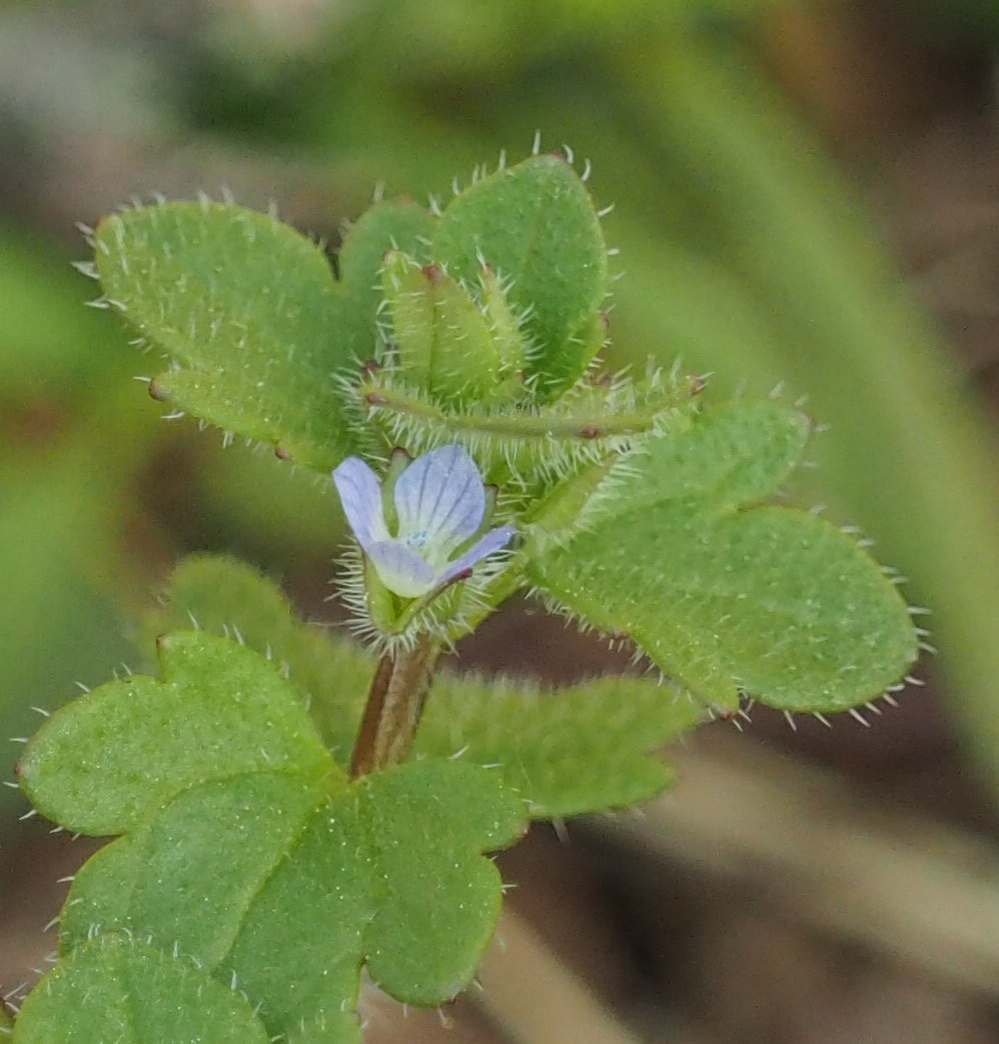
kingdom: Plantae
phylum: Tracheophyta
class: Magnoliopsida
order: Lamiales
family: Plantaginaceae
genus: Veronica
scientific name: Veronica hederifolia
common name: Ivy-leaved speedwell
